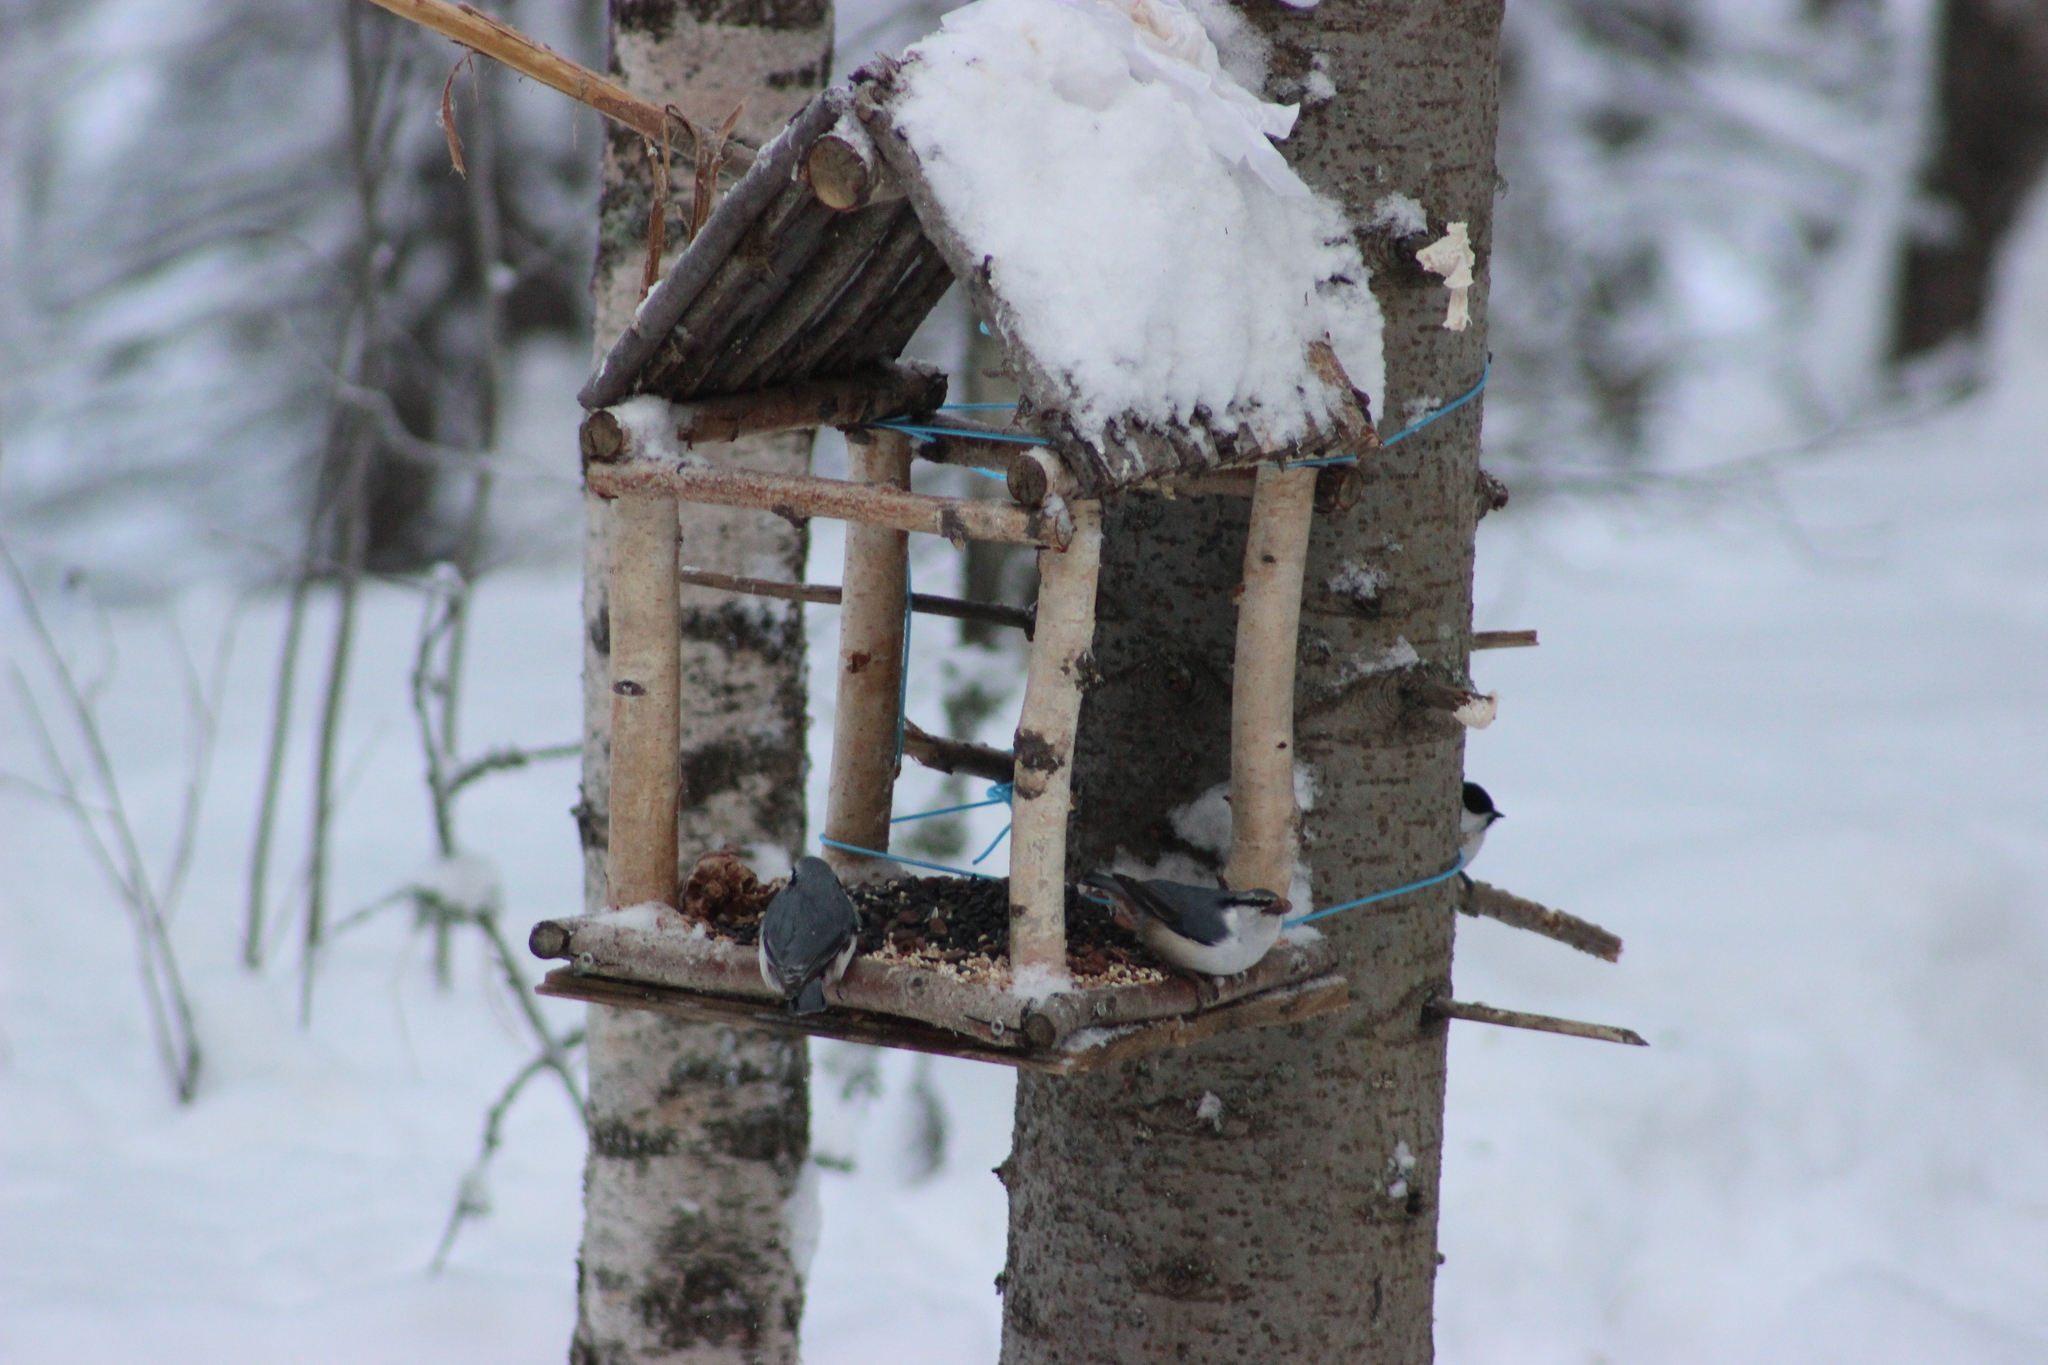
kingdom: Animalia
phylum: Chordata
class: Aves
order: Passeriformes
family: Sittidae
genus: Sitta
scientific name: Sitta europaea
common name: Eurasian nuthatch
